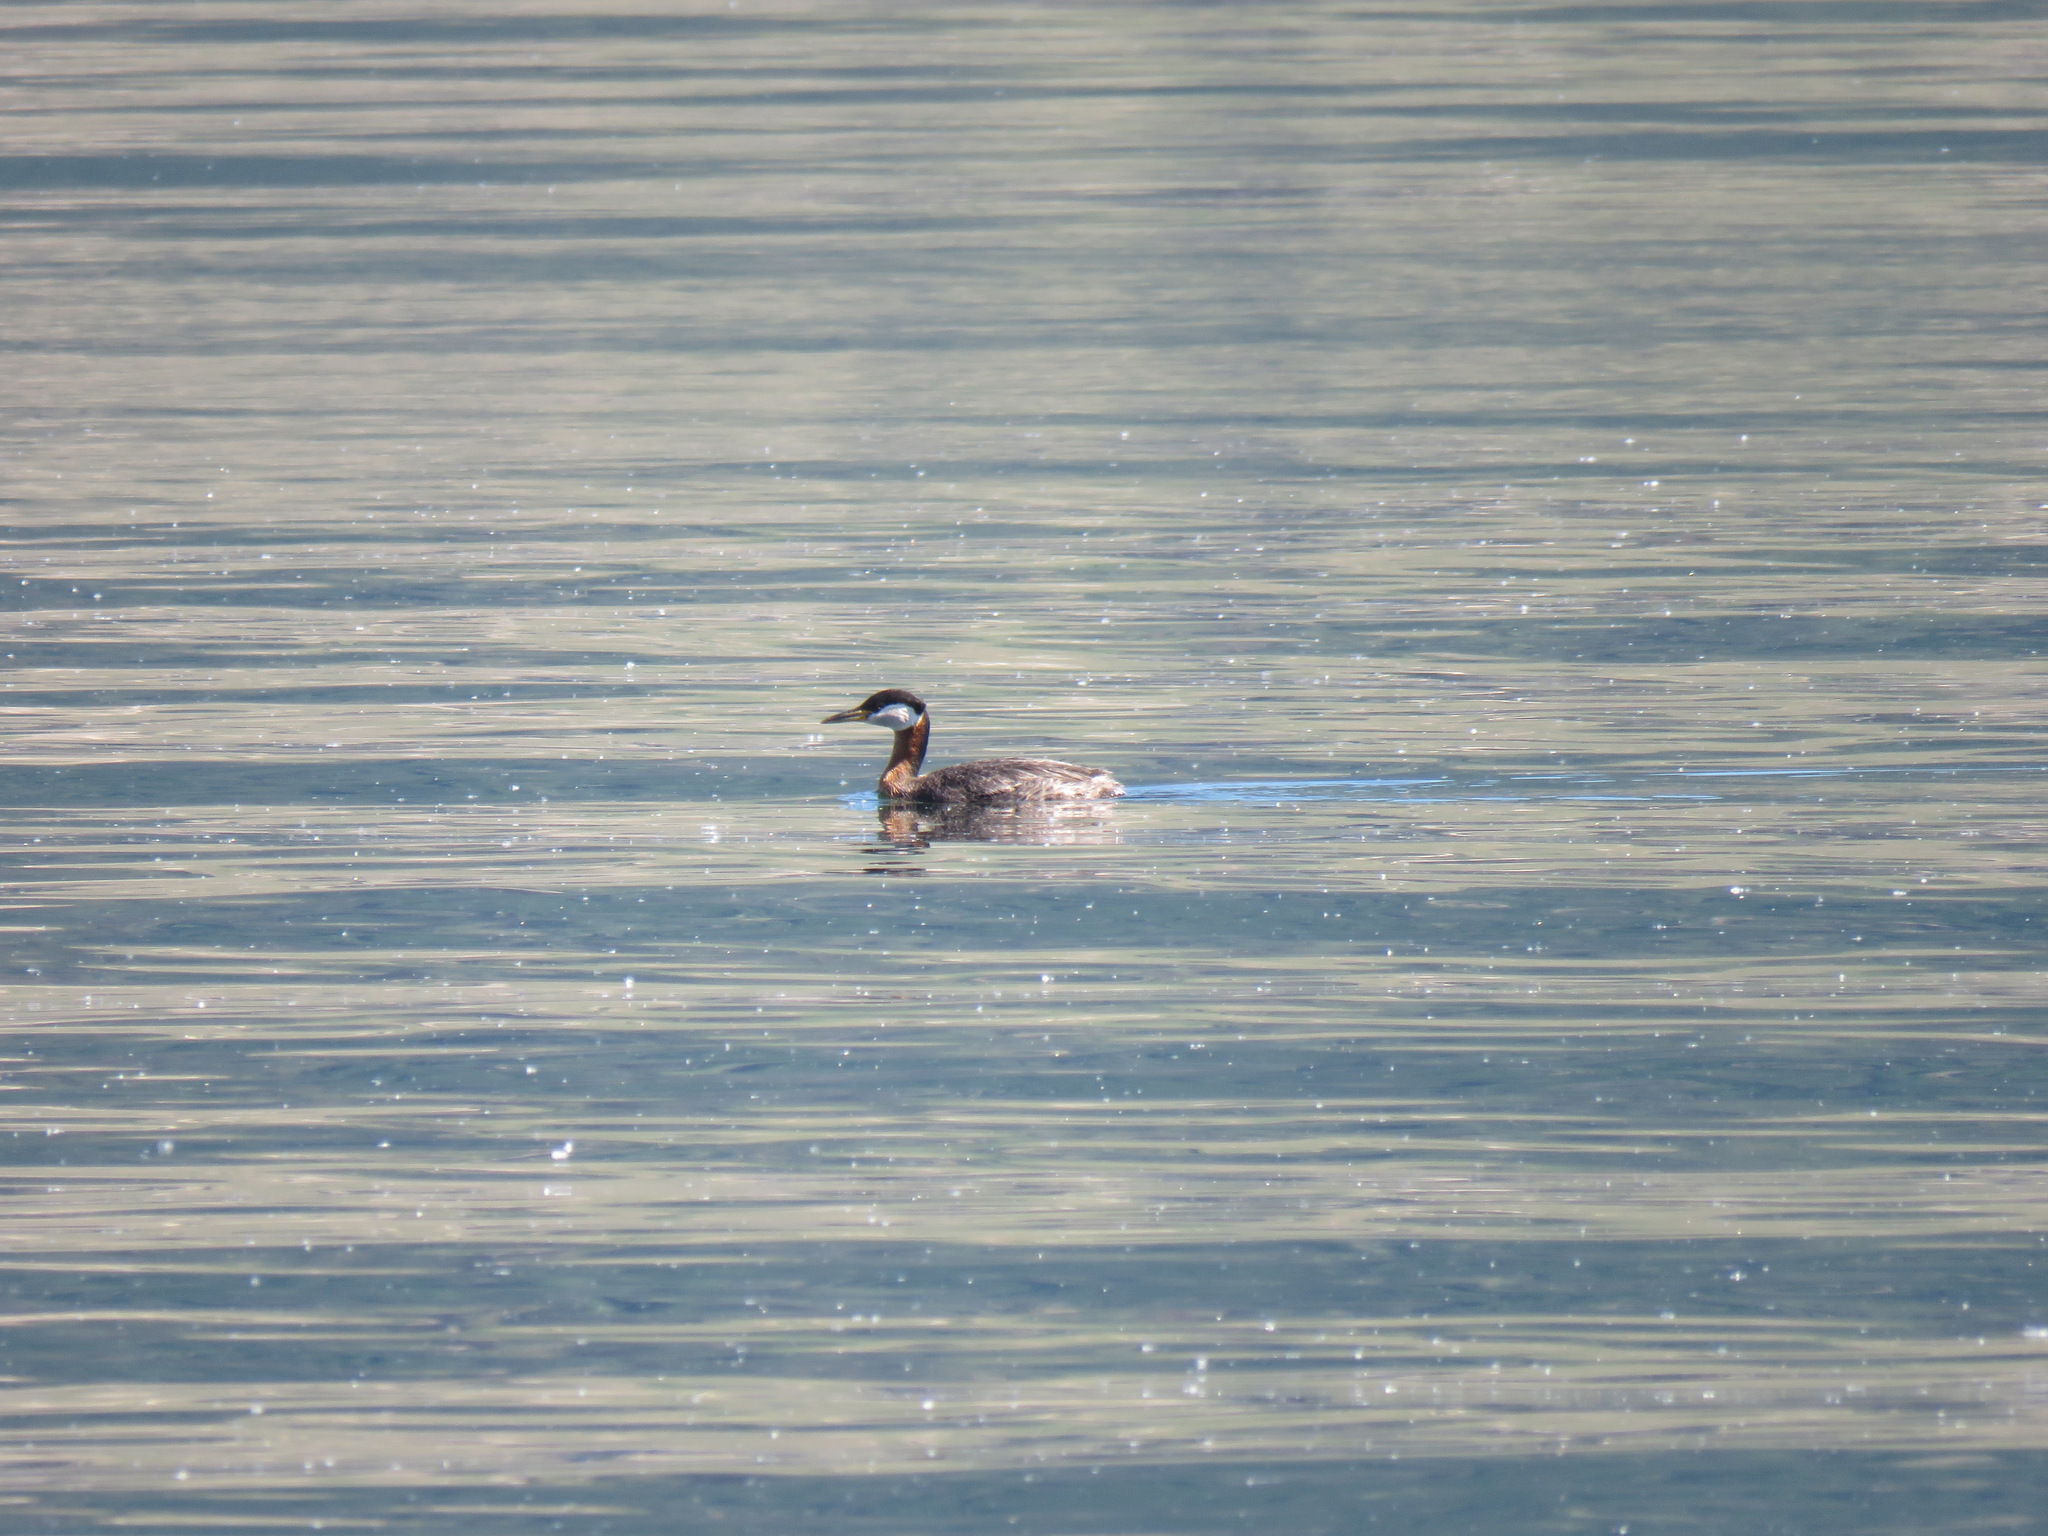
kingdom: Animalia
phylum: Chordata
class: Aves
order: Podicipediformes
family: Podicipedidae
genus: Podiceps
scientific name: Podiceps grisegena
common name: Red-necked grebe
